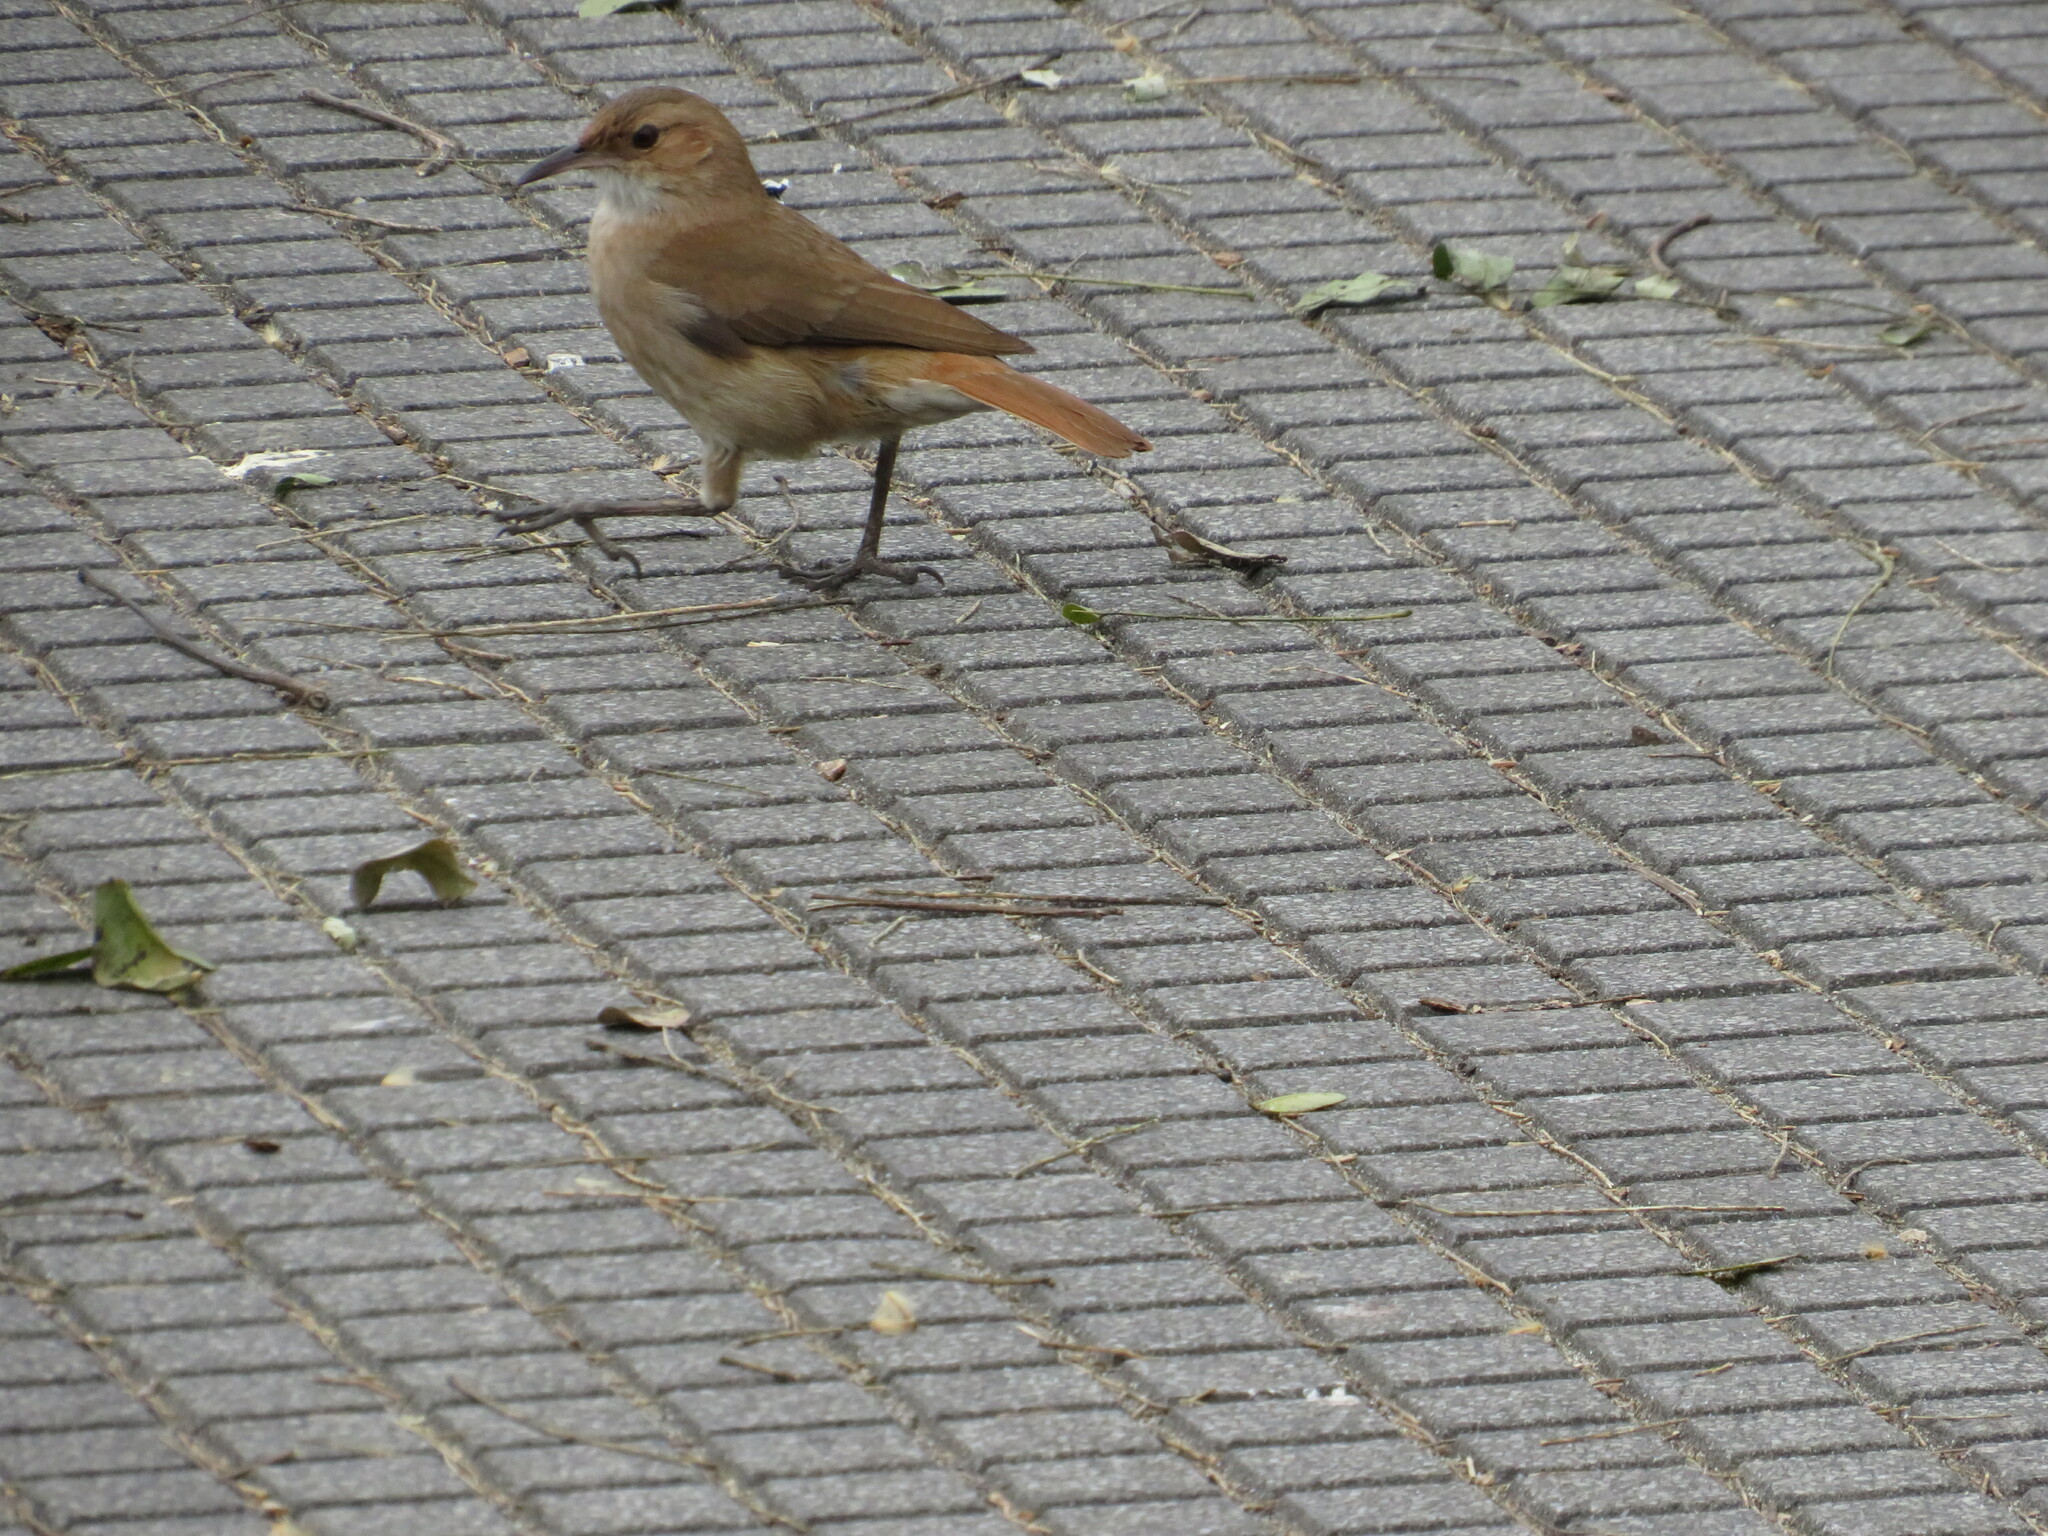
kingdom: Animalia
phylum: Chordata
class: Aves
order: Passeriformes
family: Furnariidae
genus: Furnarius
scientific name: Furnarius rufus
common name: Rufous hornero
